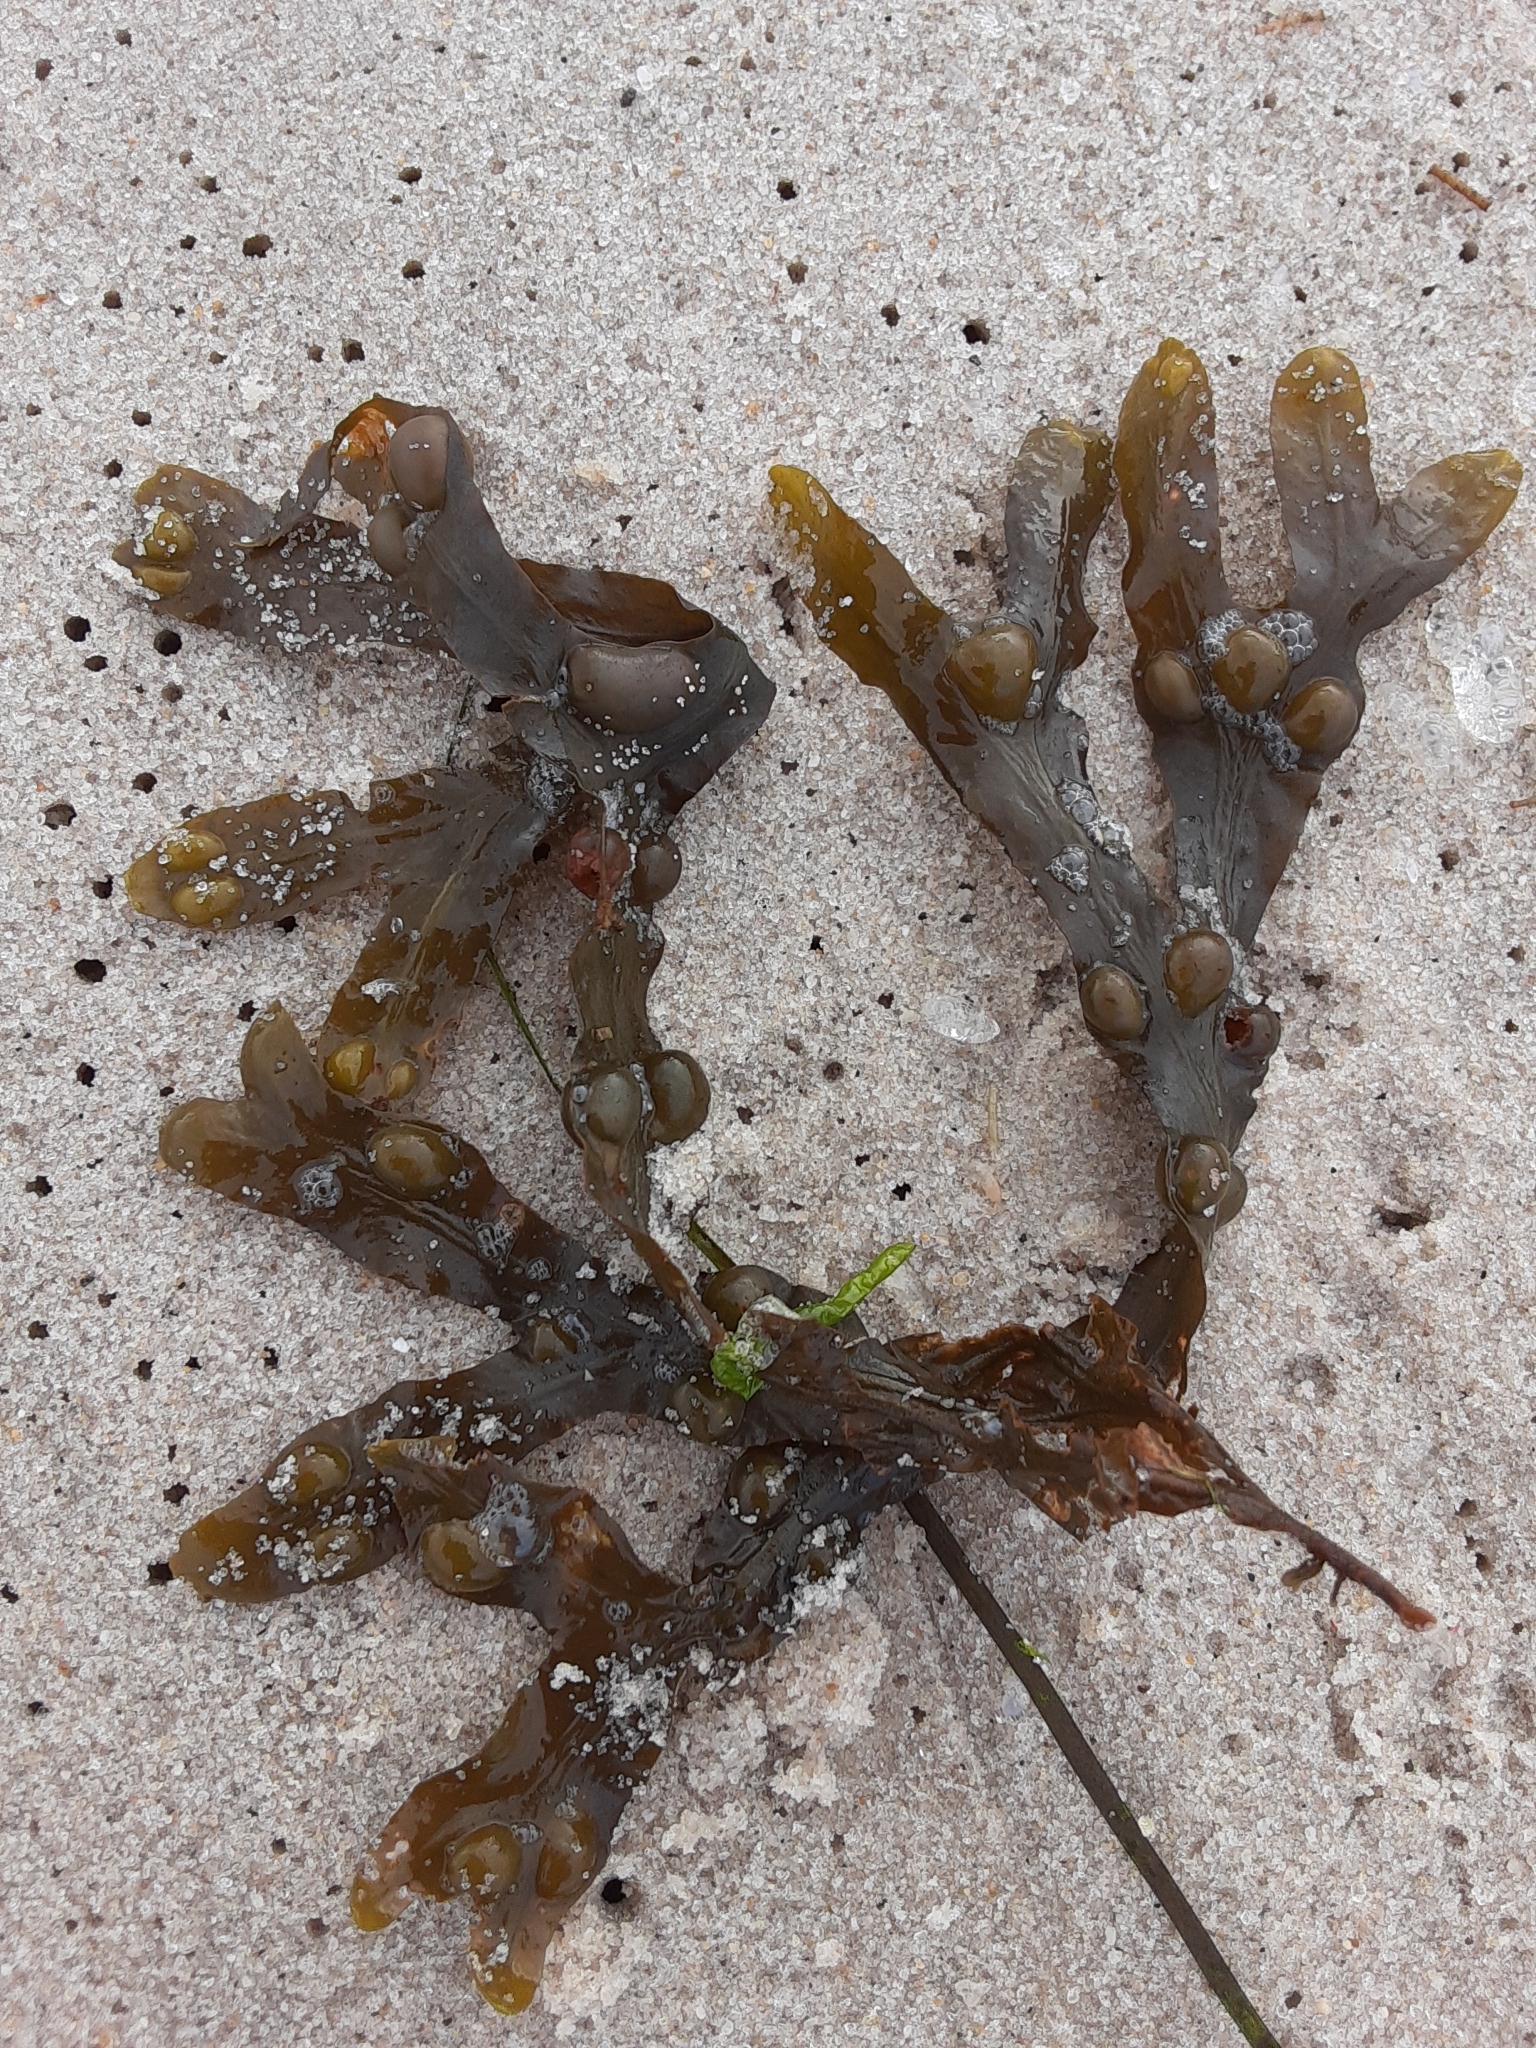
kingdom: Chromista
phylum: Ochrophyta
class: Phaeophyceae
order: Fucales
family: Fucaceae
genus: Fucus
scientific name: Fucus vesiculosus
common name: Bladder wrack
